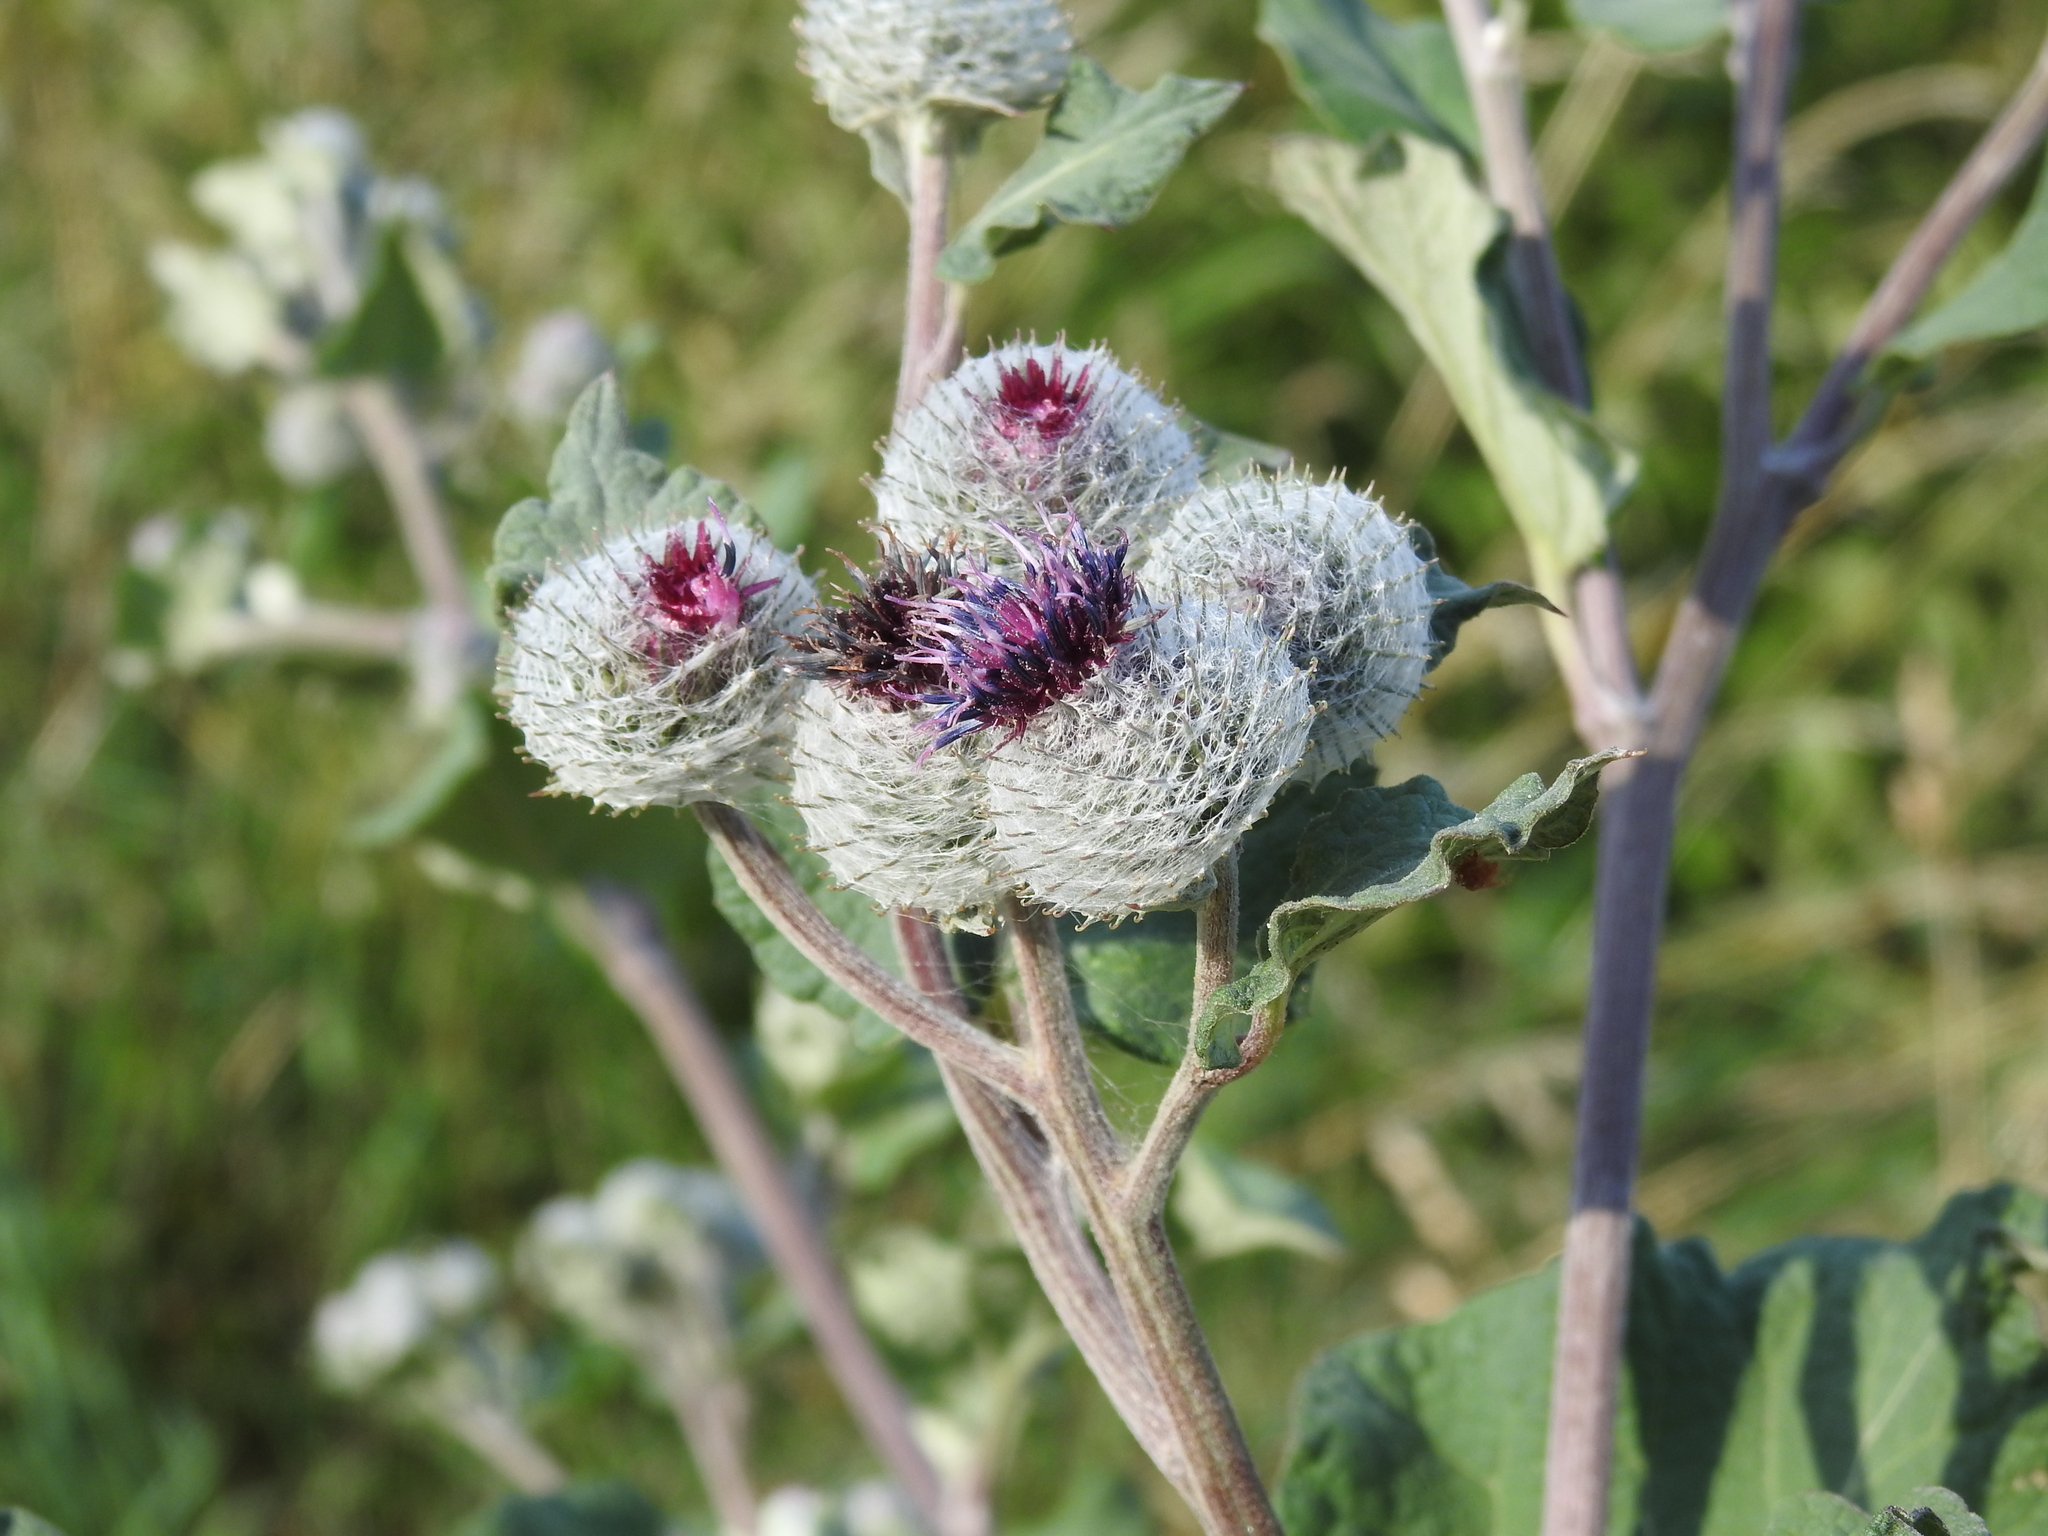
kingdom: Plantae
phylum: Tracheophyta
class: Magnoliopsida
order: Asterales
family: Asteraceae
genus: Arctium
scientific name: Arctium tomentosum
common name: Woolly burdock
